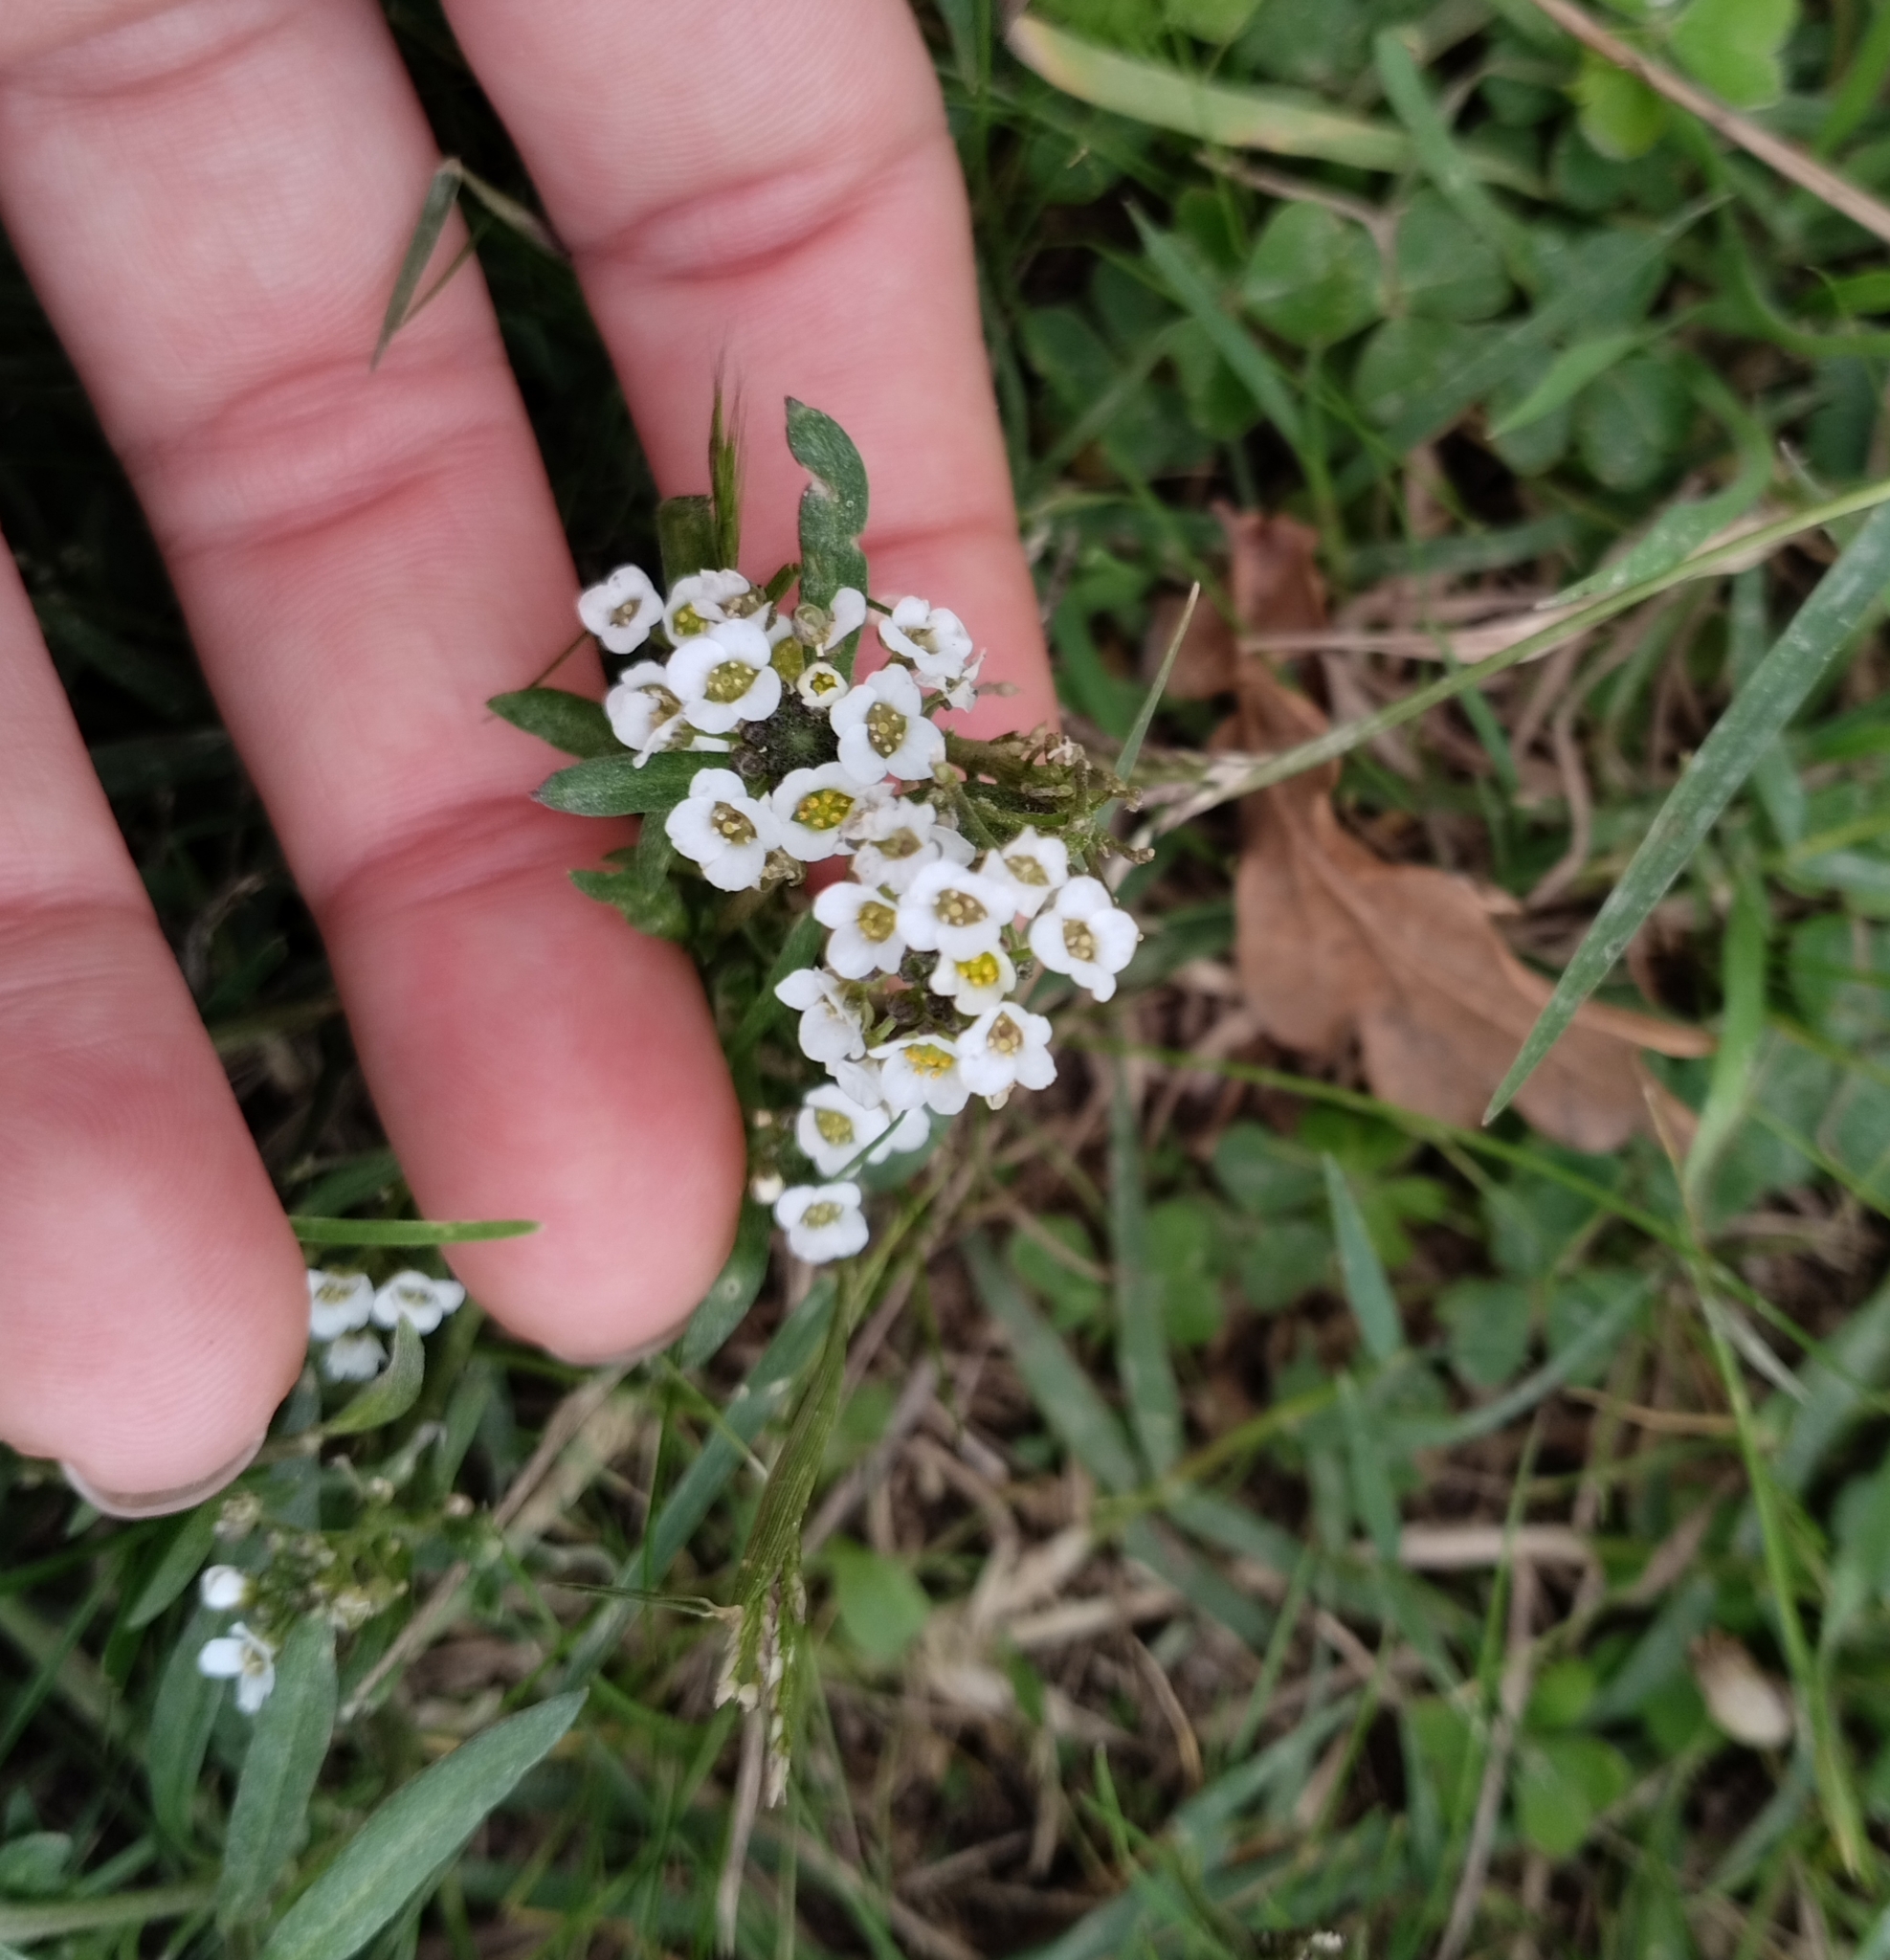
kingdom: Plantae
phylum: Tracheophyta
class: Magnoliopsida
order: Brassicales
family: Brassicaceae
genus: Lobularia
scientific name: Lobularia maritima
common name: Sweet alison
